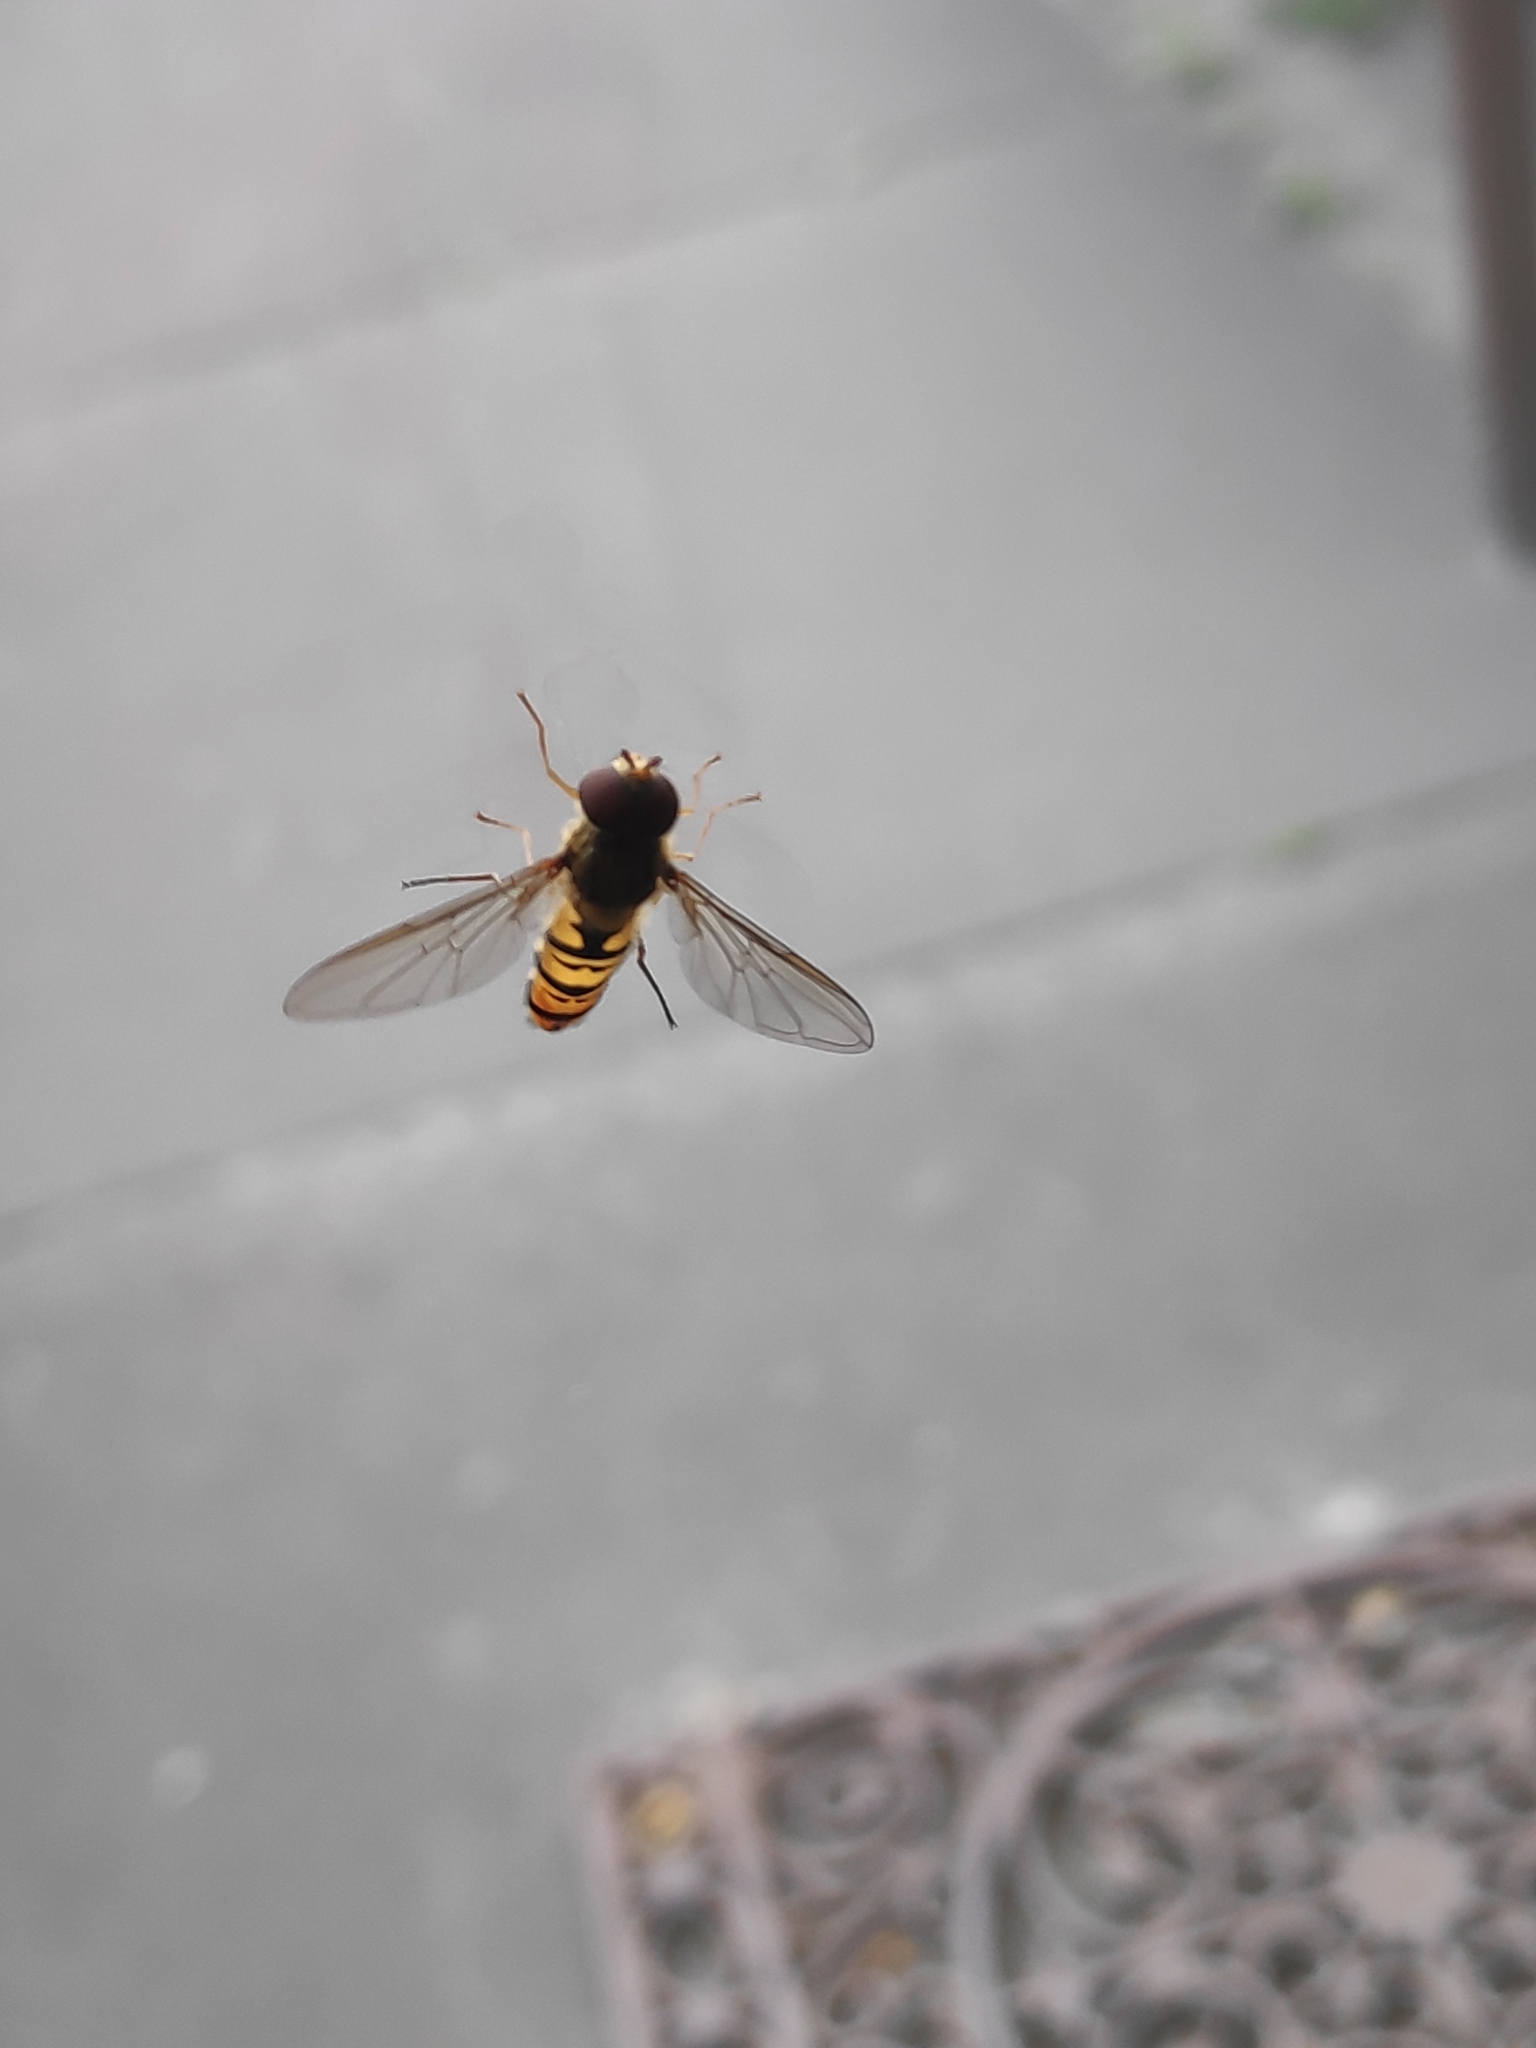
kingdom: Animalia
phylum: Arthropoda
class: Insecta
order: Diptera
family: Syrphidae
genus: Episyrphus
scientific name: Episyrphus balteatus
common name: Marmalade hoverfly
